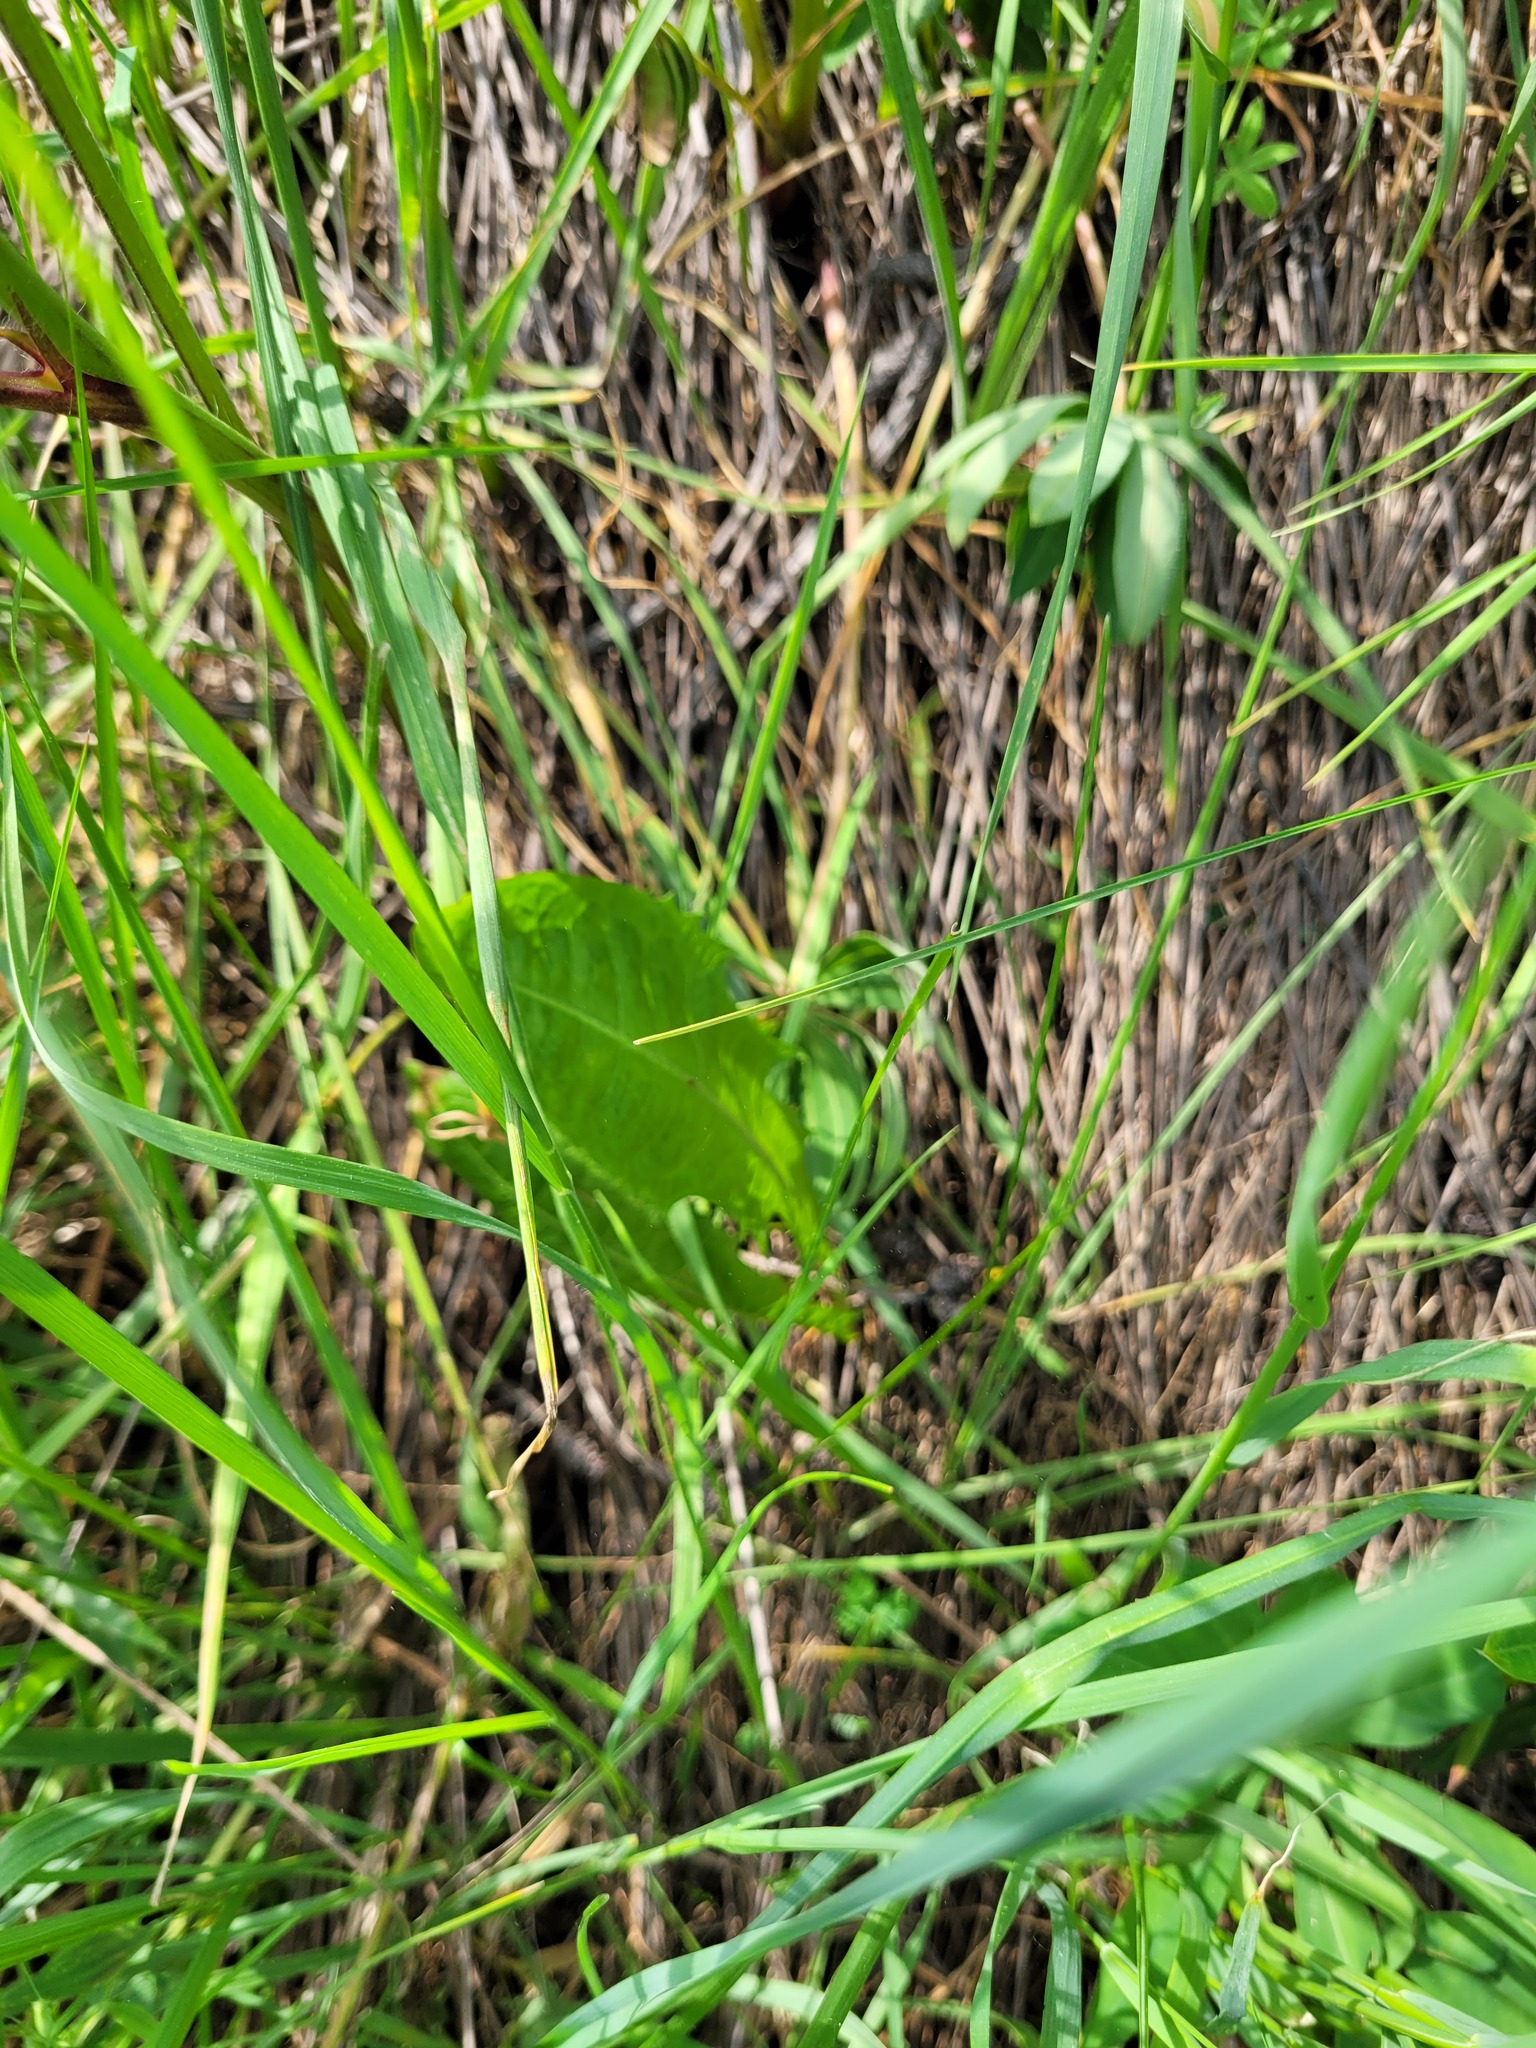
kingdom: Plantae
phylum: Tracheophyta
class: Magnoliopsida
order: Asterales
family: Asteraceae
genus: Taraxacum
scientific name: Taraxacum officinale
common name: Common dandelion
